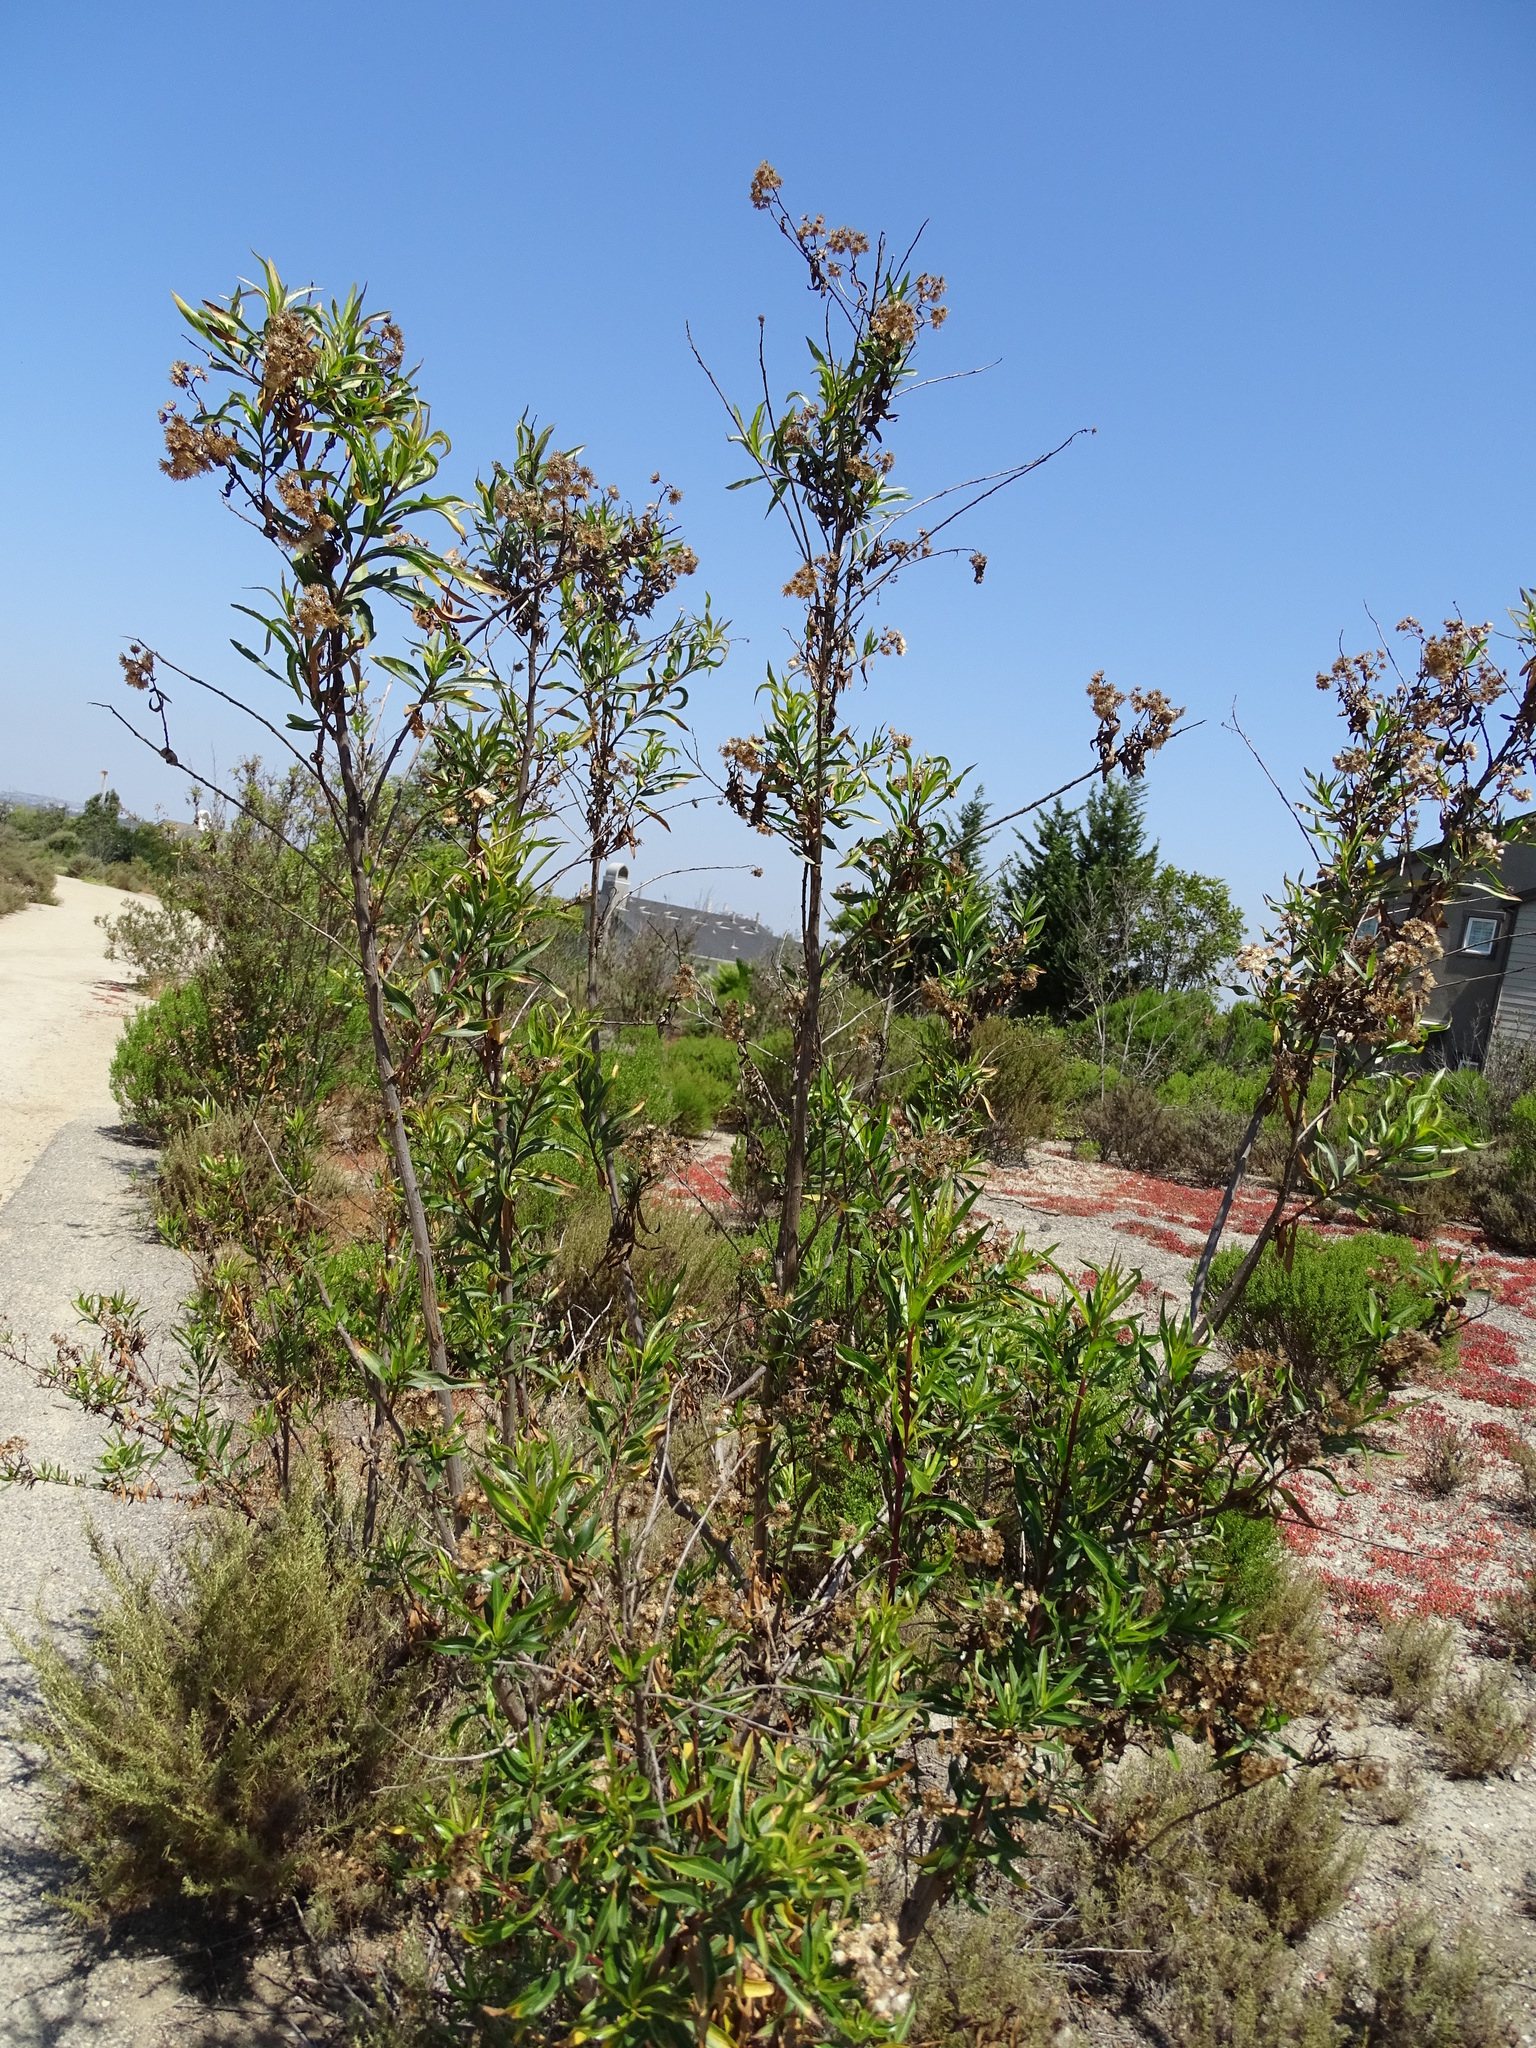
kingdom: Plantae
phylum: Tracheophyta
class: Magnoliopsida
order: Asterales
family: Asteraceae
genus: Baccharis
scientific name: Baccharis salicifolia
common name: Sticky baccharis
